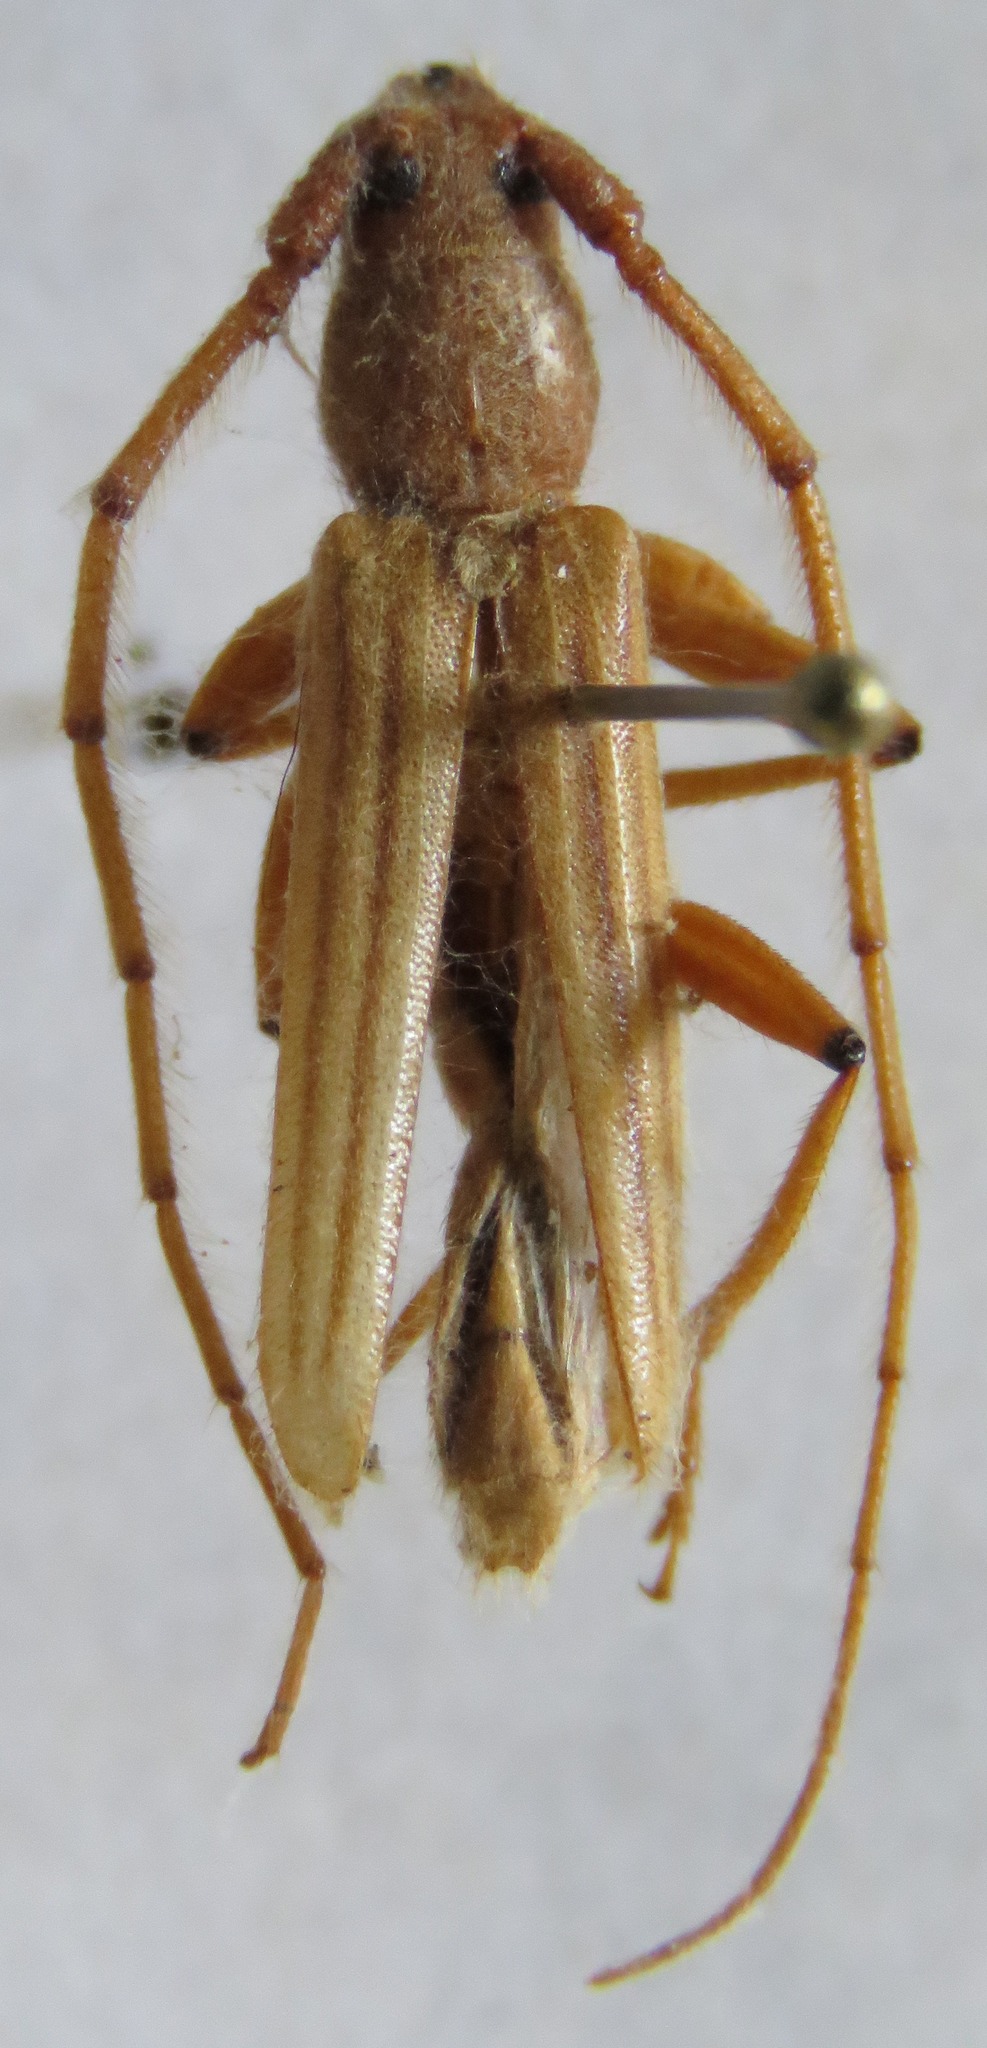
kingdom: Animalia
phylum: Arthropoda
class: Insecta
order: Coleoptera
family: Cerambycidae
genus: Malacopterus
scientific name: Malacopterus tenellus
